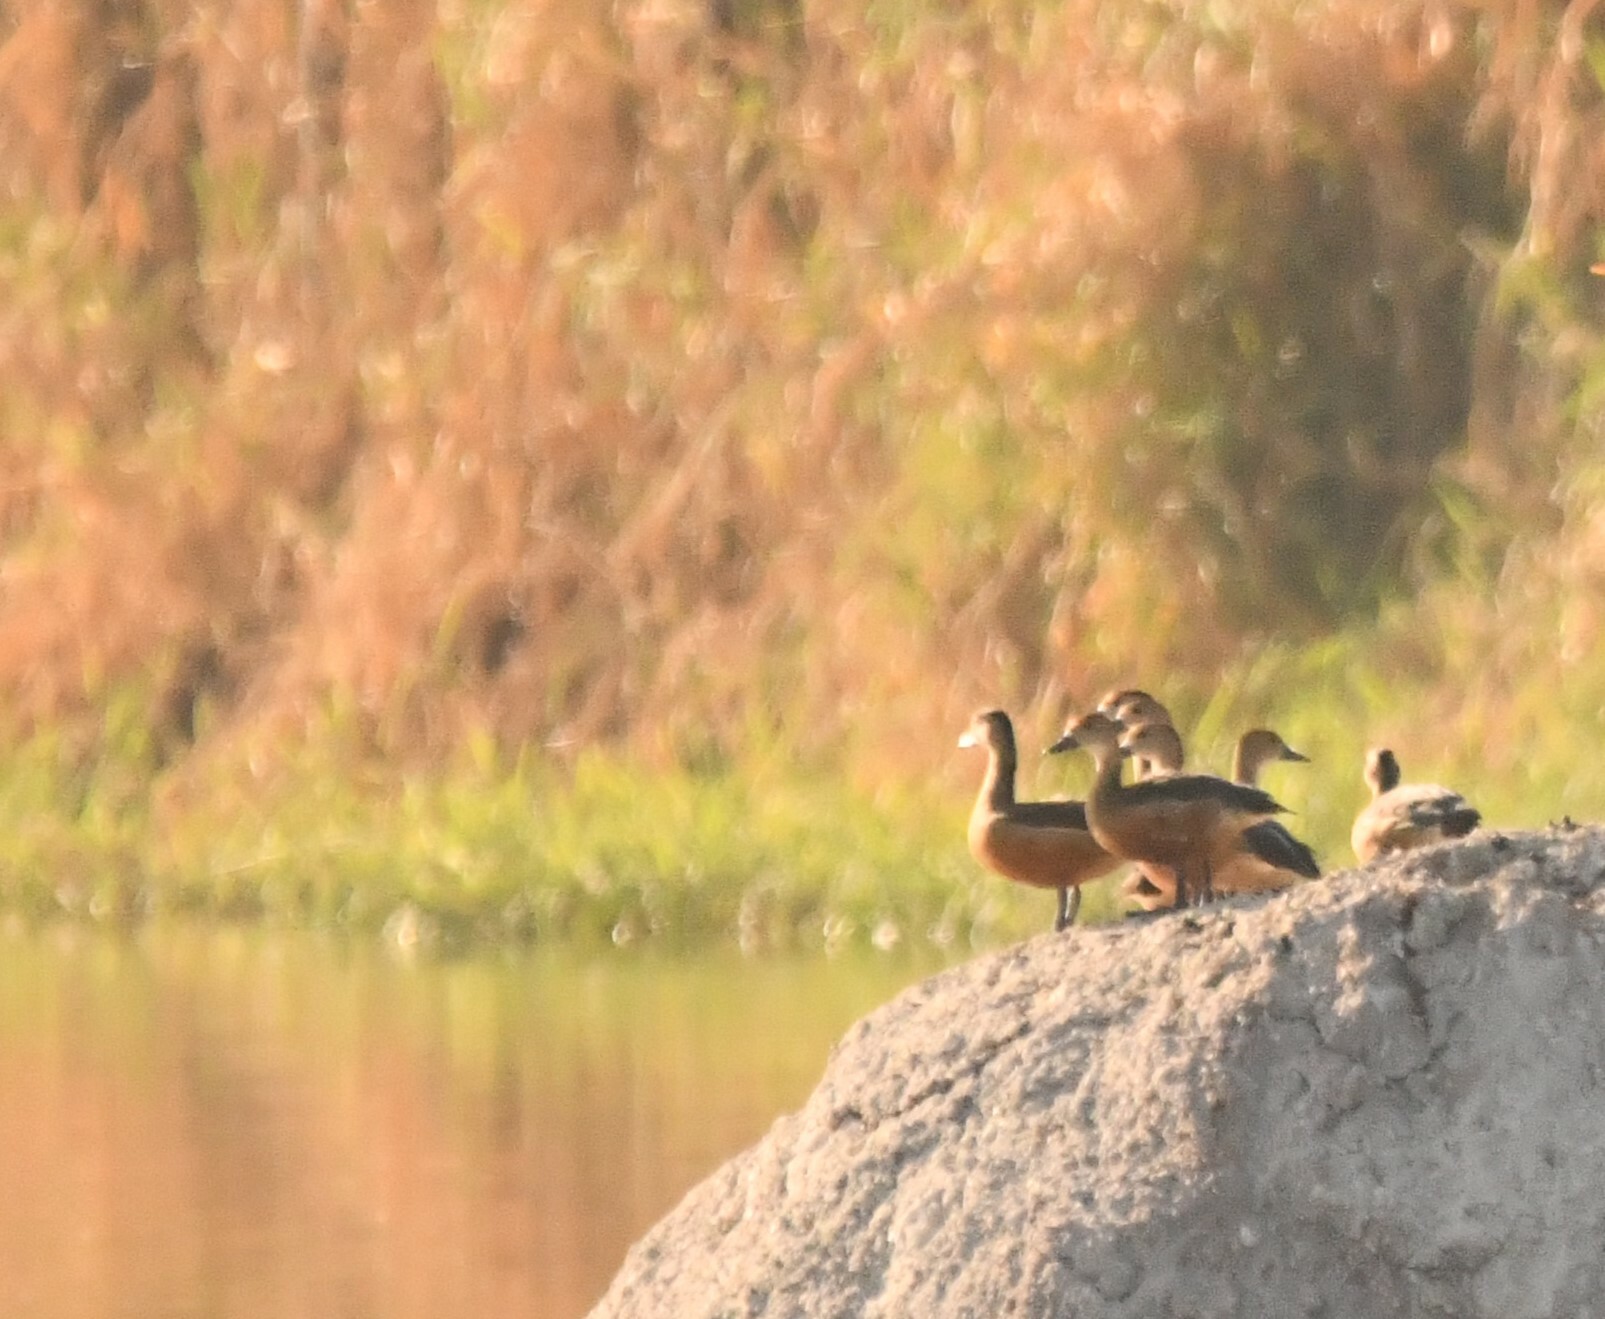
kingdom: Animalia
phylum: Chordata
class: Aves
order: Anseriformes
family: Anatidae
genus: Dendrocygna
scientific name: Dendrocygna javanica
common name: Lesser whistling-duck
